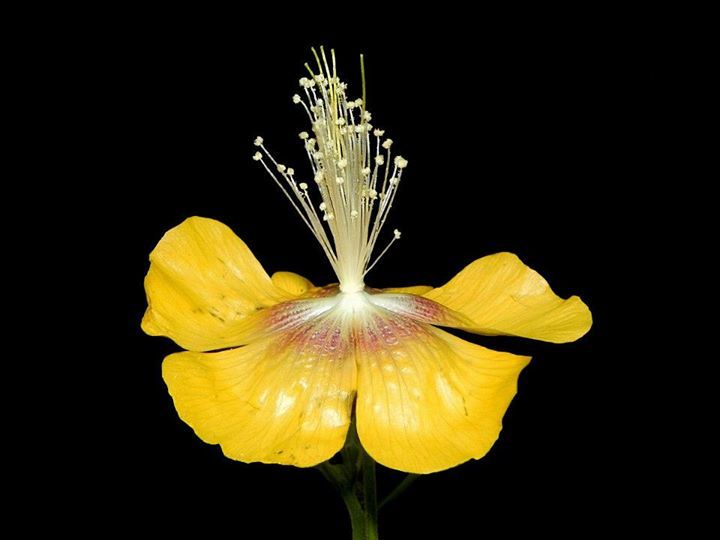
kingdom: Plantae
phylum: Tracheophyta
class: Magnoliopsida
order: Malvales
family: Malvaceae
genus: Abutilon
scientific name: Abutilon persicum
